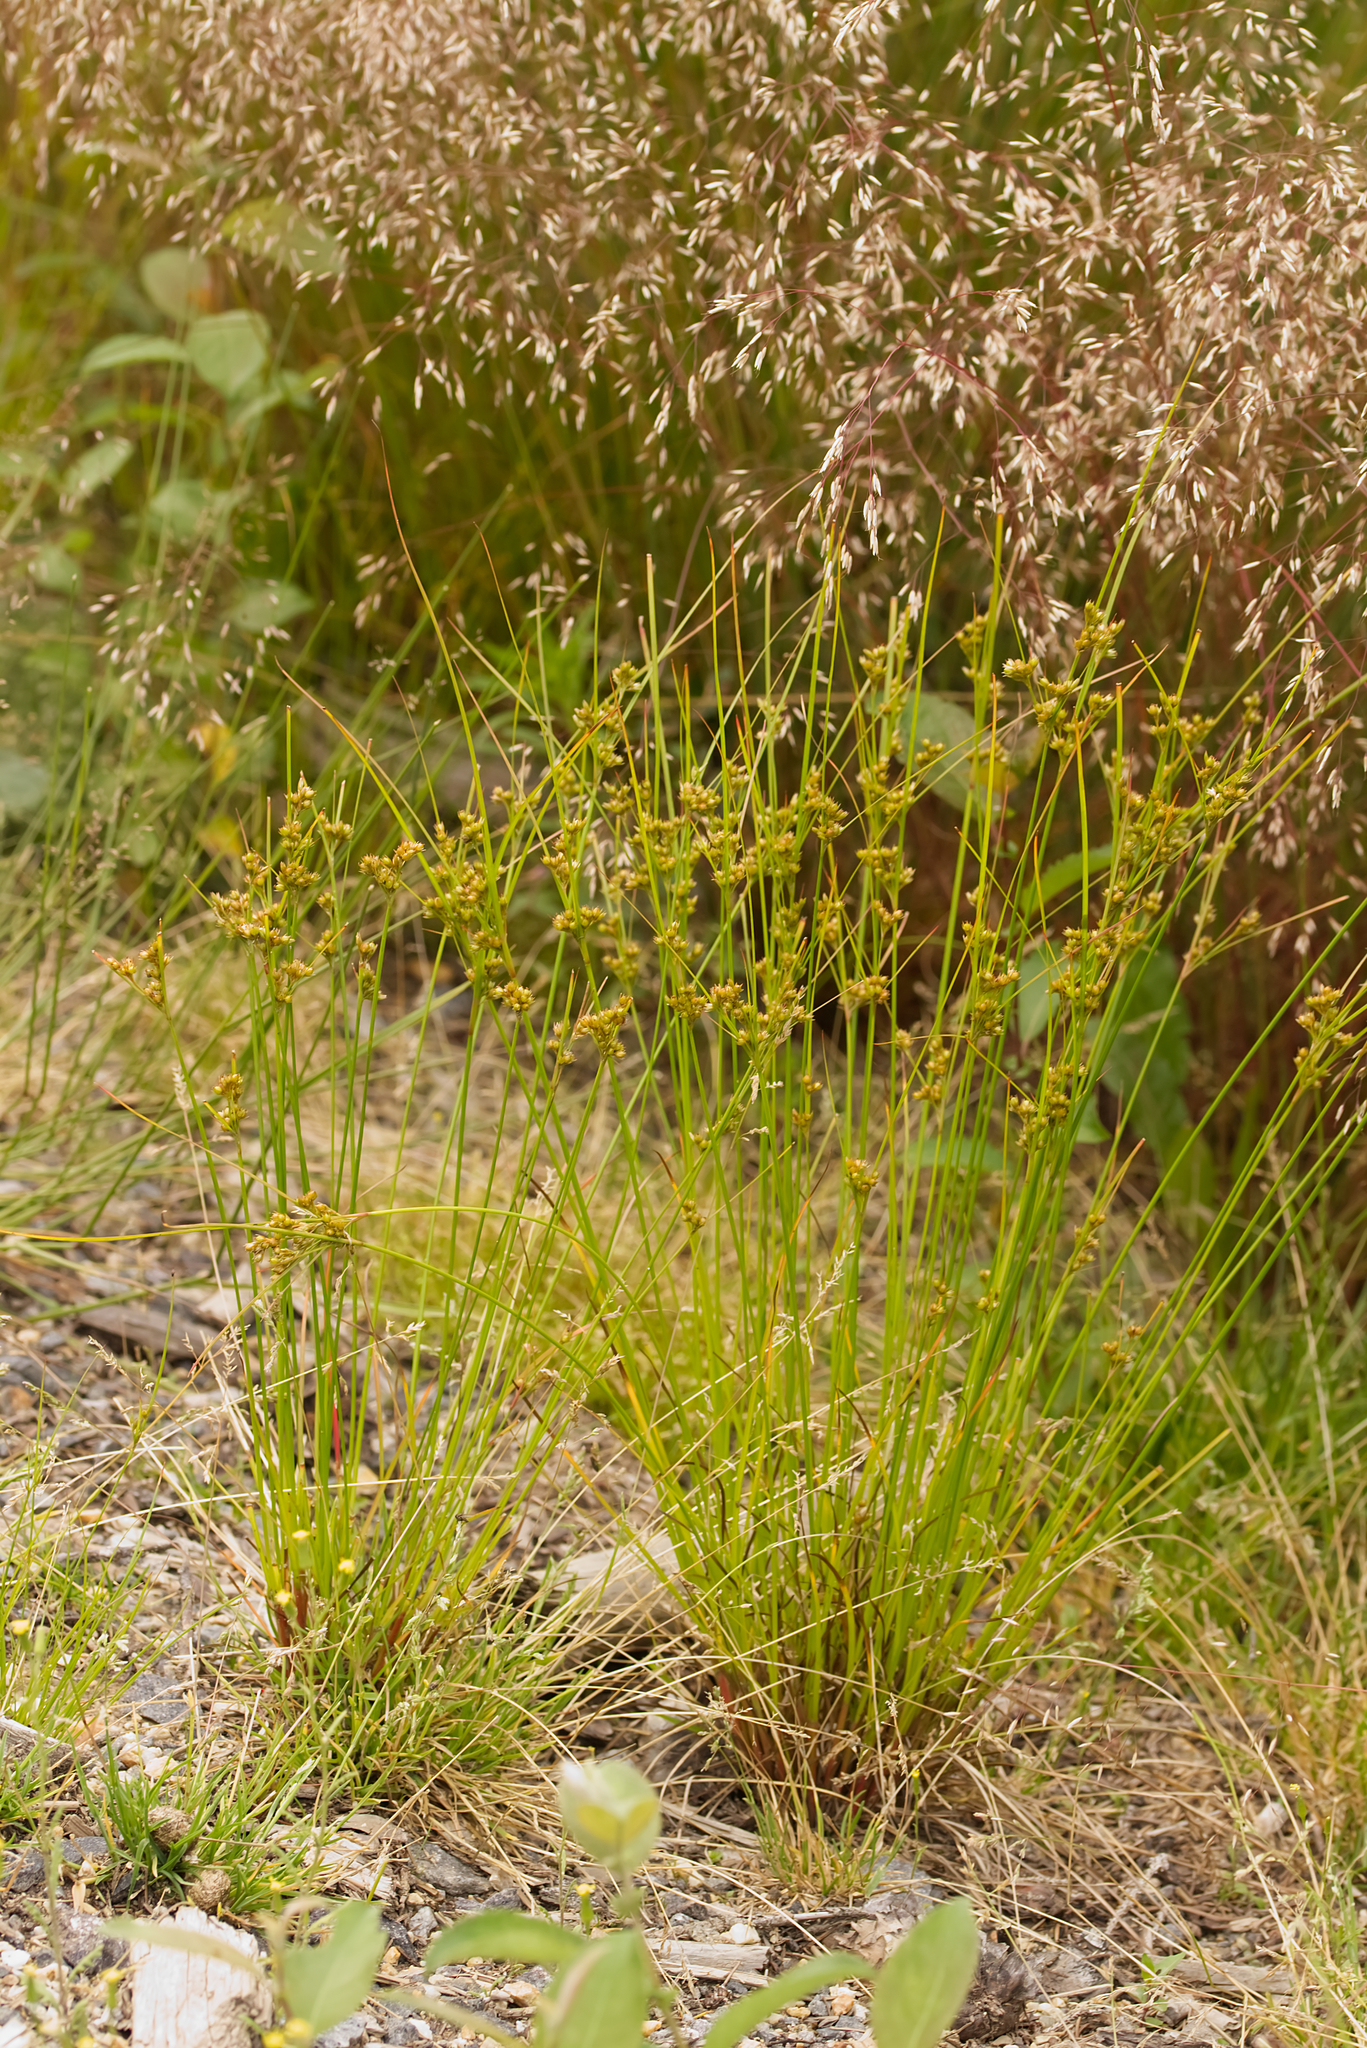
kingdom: Plantae
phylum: Tracheophyta
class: Liliopsida
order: Poales
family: Juncaceae
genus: Juncus
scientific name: Juncus tenuis
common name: Slender rush
